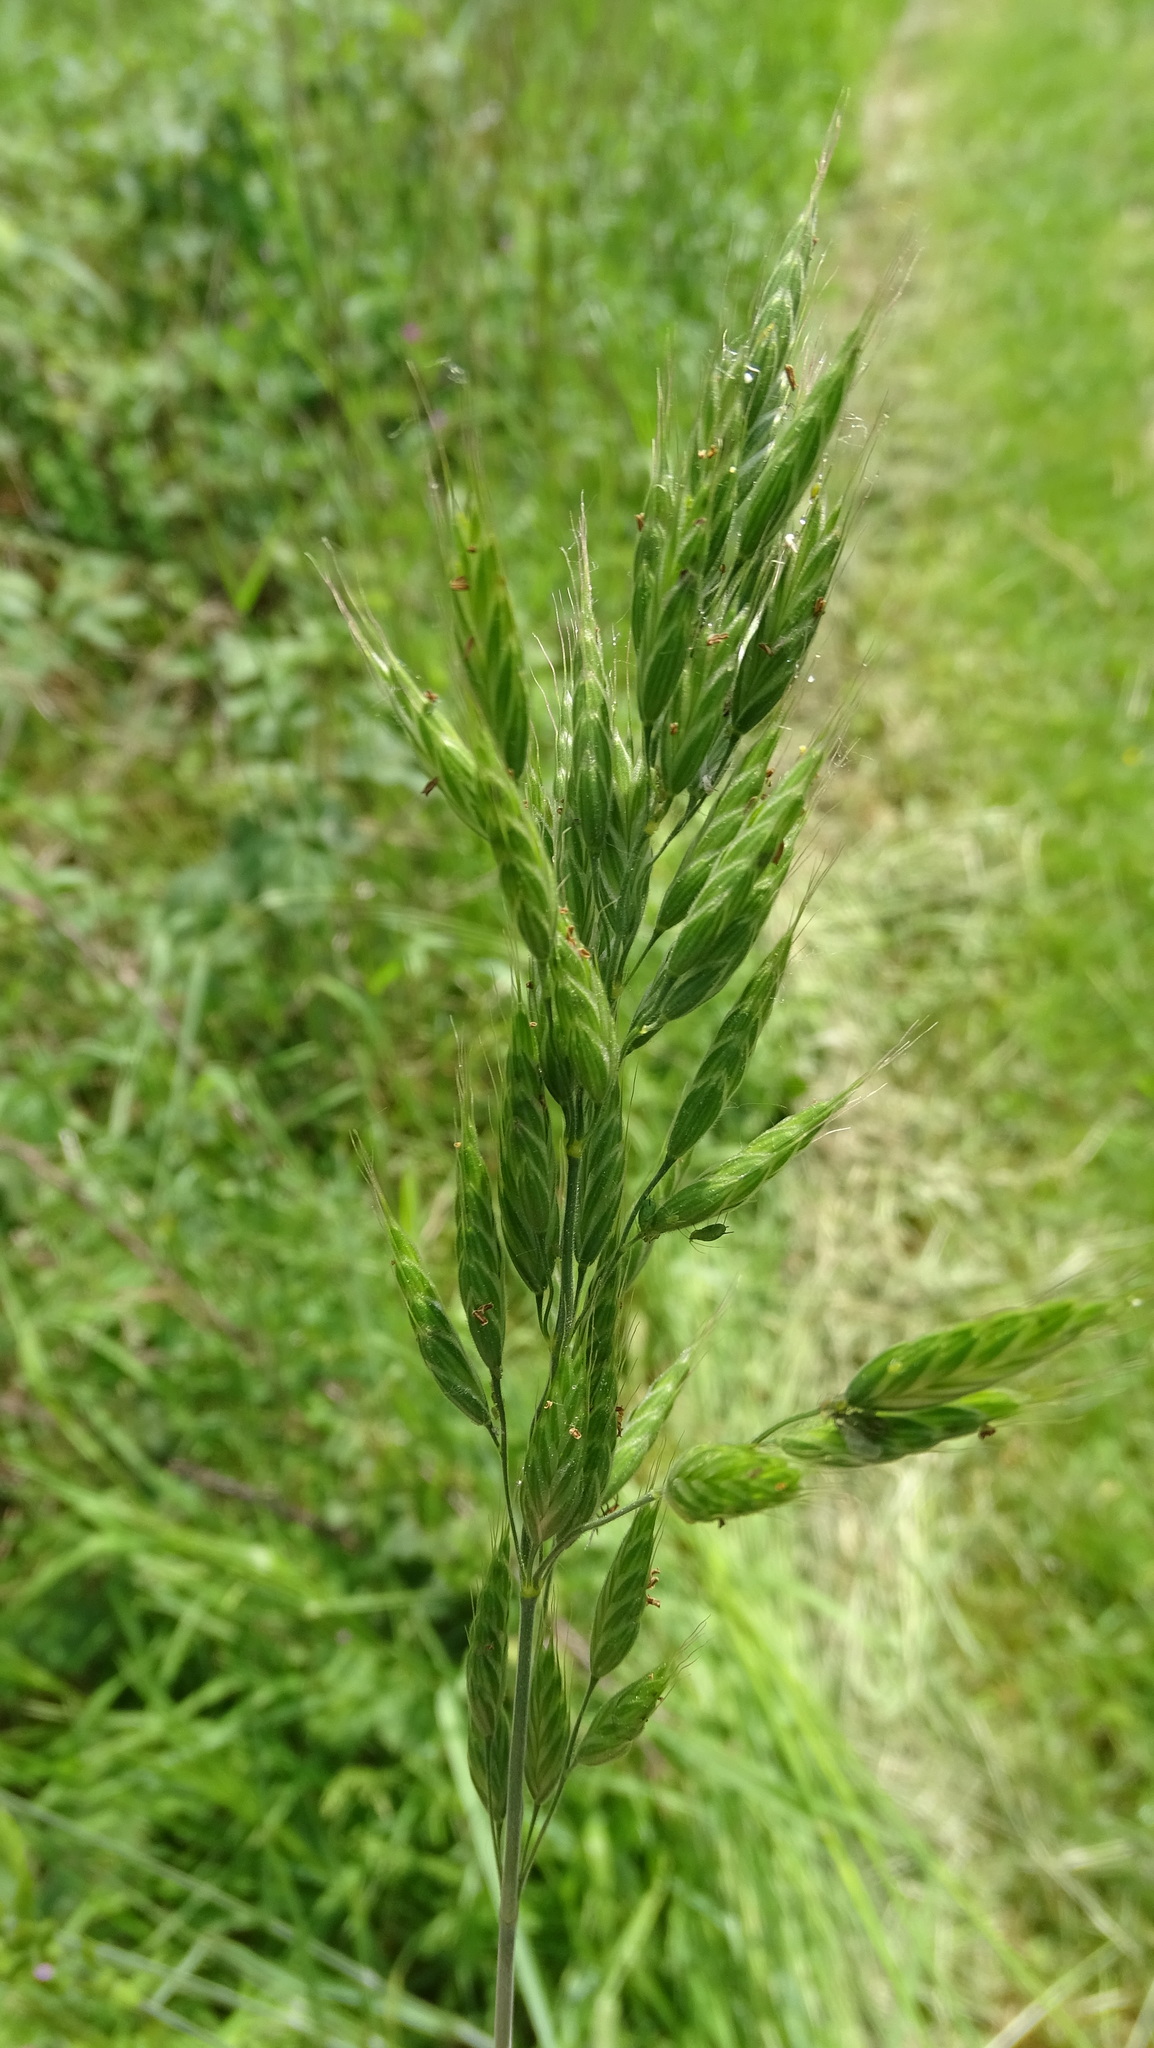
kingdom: Plantae
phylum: Tracheophyta
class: Liliopsida
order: Poales
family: Poaceae
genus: Bromus
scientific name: Bromus hordeaceus
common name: Soft brome
